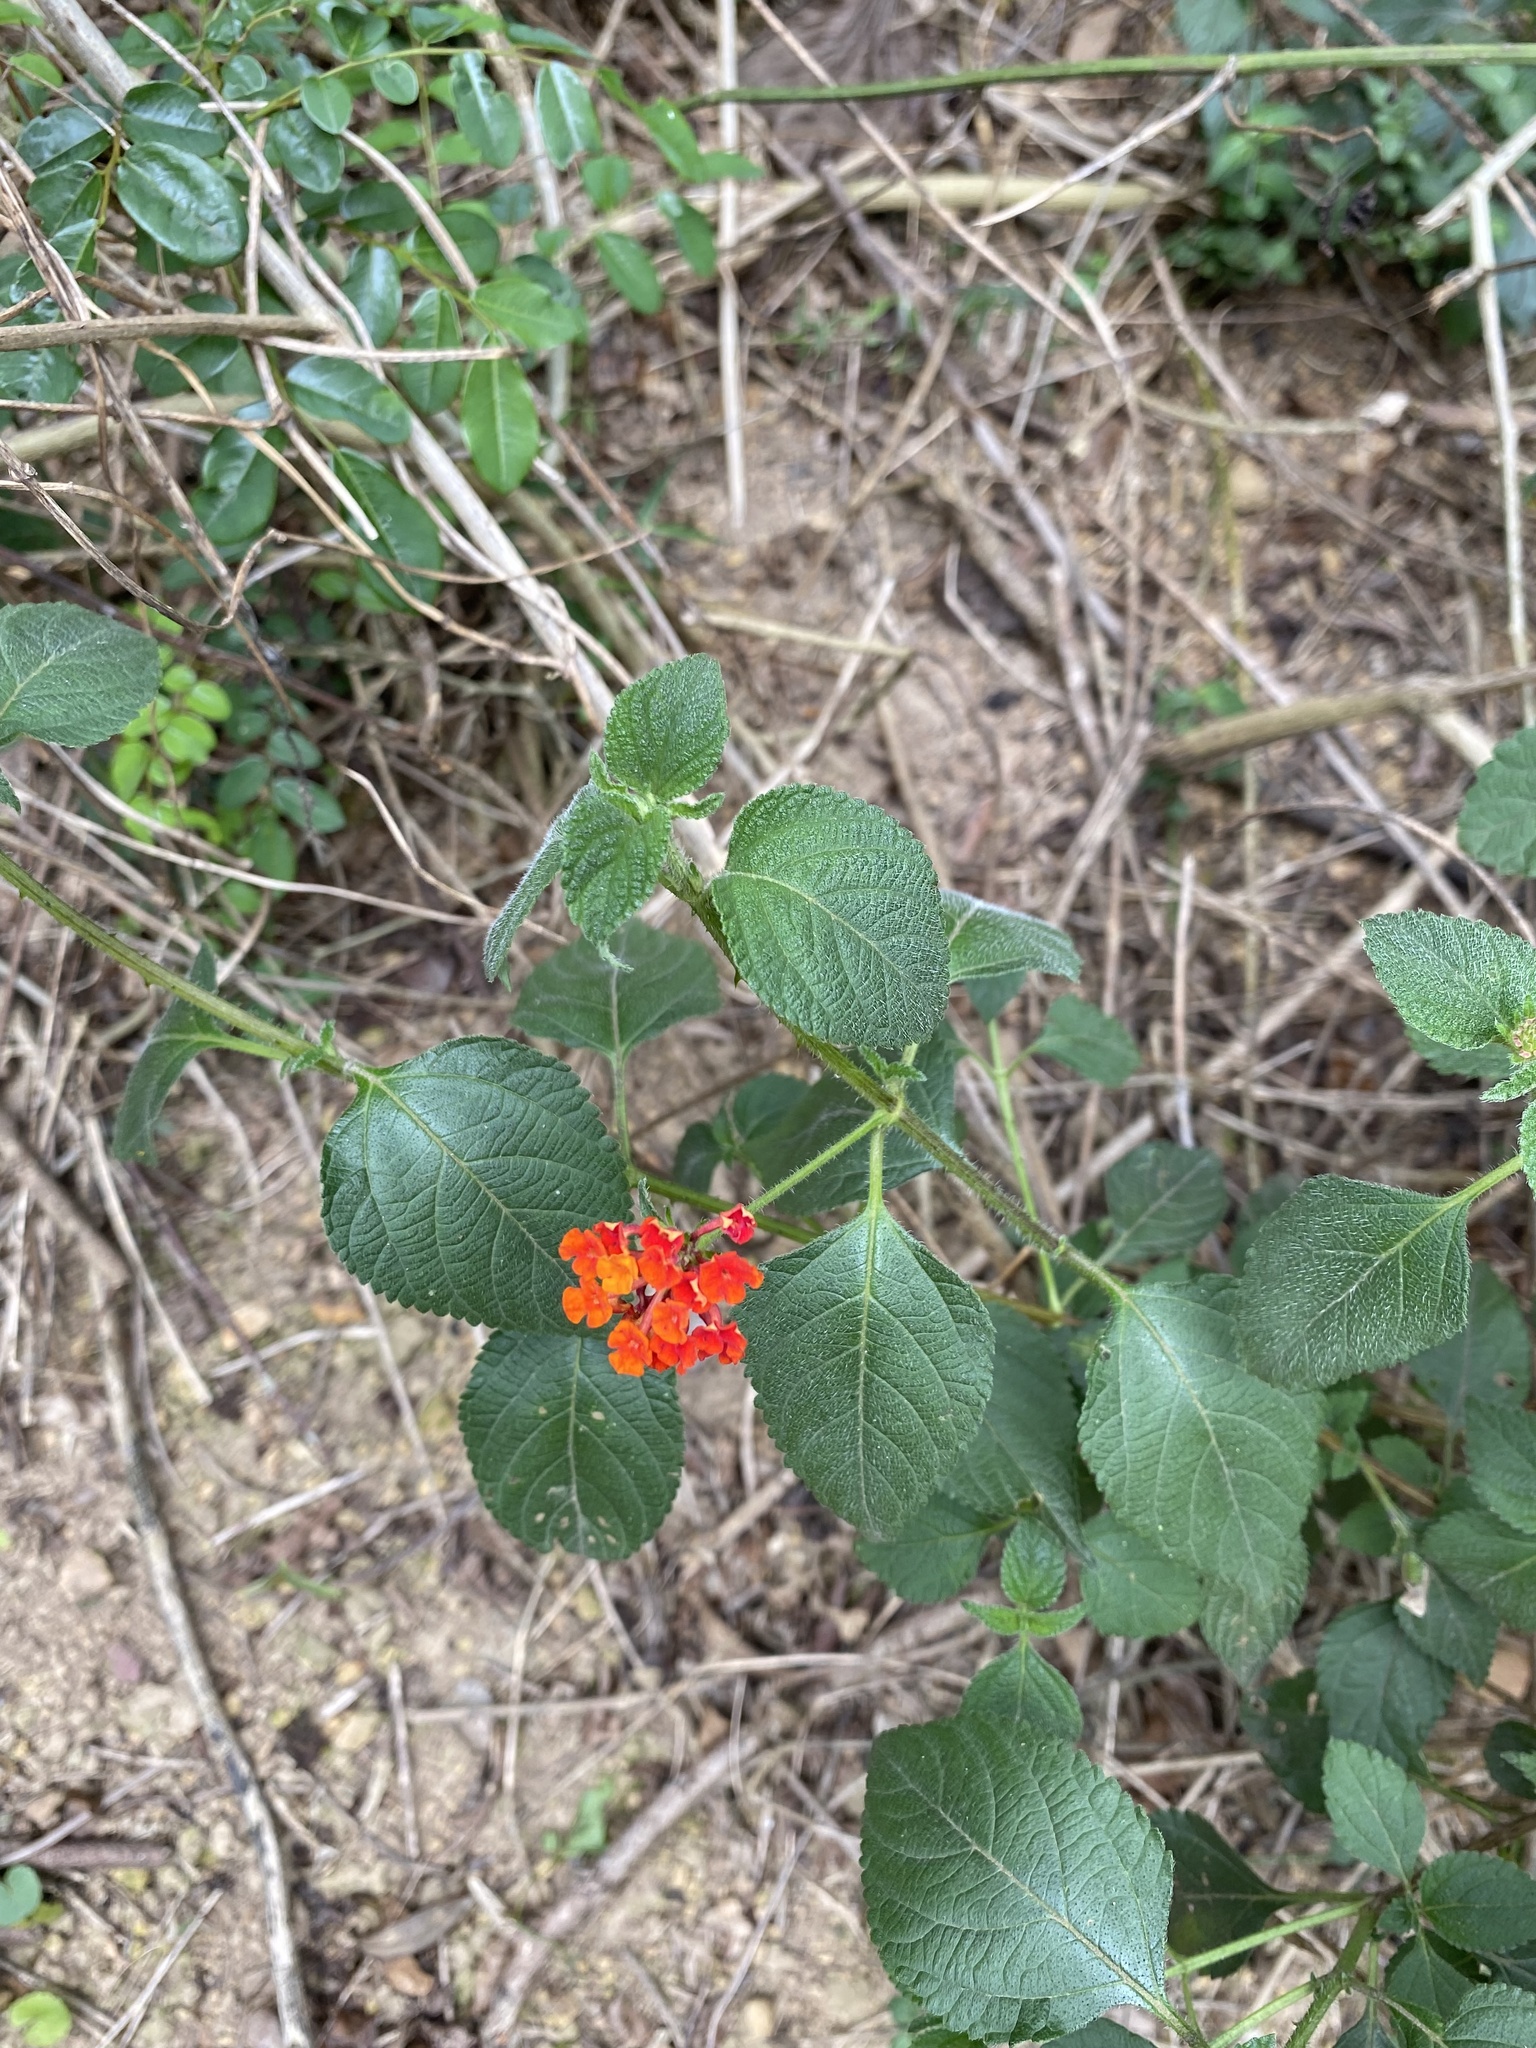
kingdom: Plantae
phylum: Tracheophyta
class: Magnoliopsida
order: Lamiales
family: Verbenaceae
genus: Lantana
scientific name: Lantana camara
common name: Lantana
